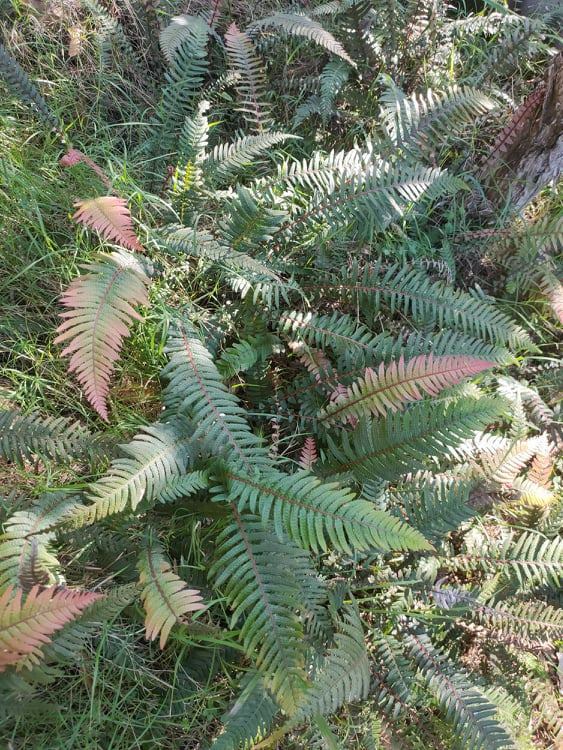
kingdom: Plantae
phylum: Tracheophyta
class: Polypodiopsida
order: Polypodiales
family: Blechnaceae
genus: Doodia
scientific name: Doodia australis
